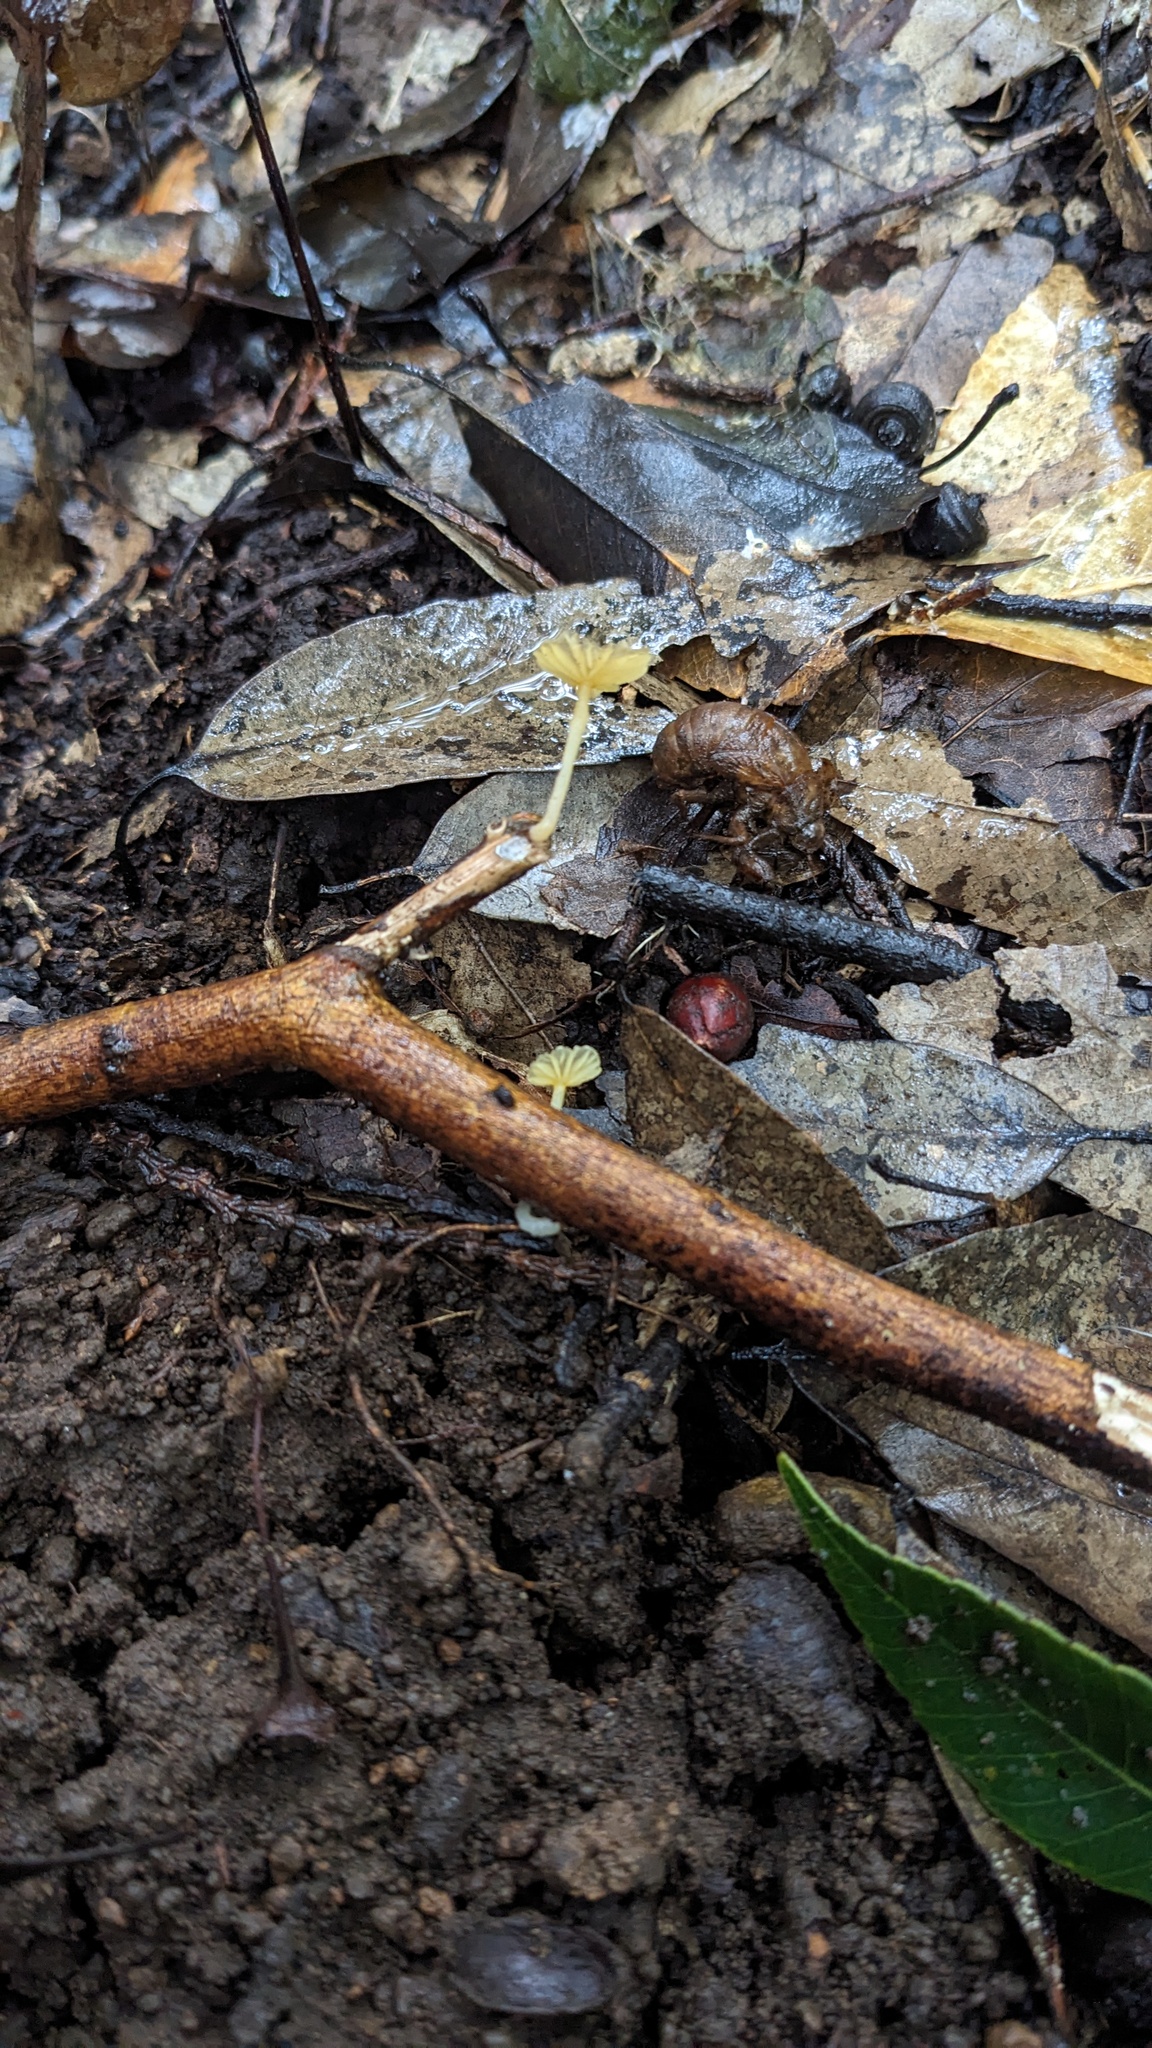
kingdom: Fungi
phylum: Basidiomycota
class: Agaricomycetes
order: Agaricales
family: Marasmiaceae
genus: Gerronema
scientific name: Gerronema nemorale
